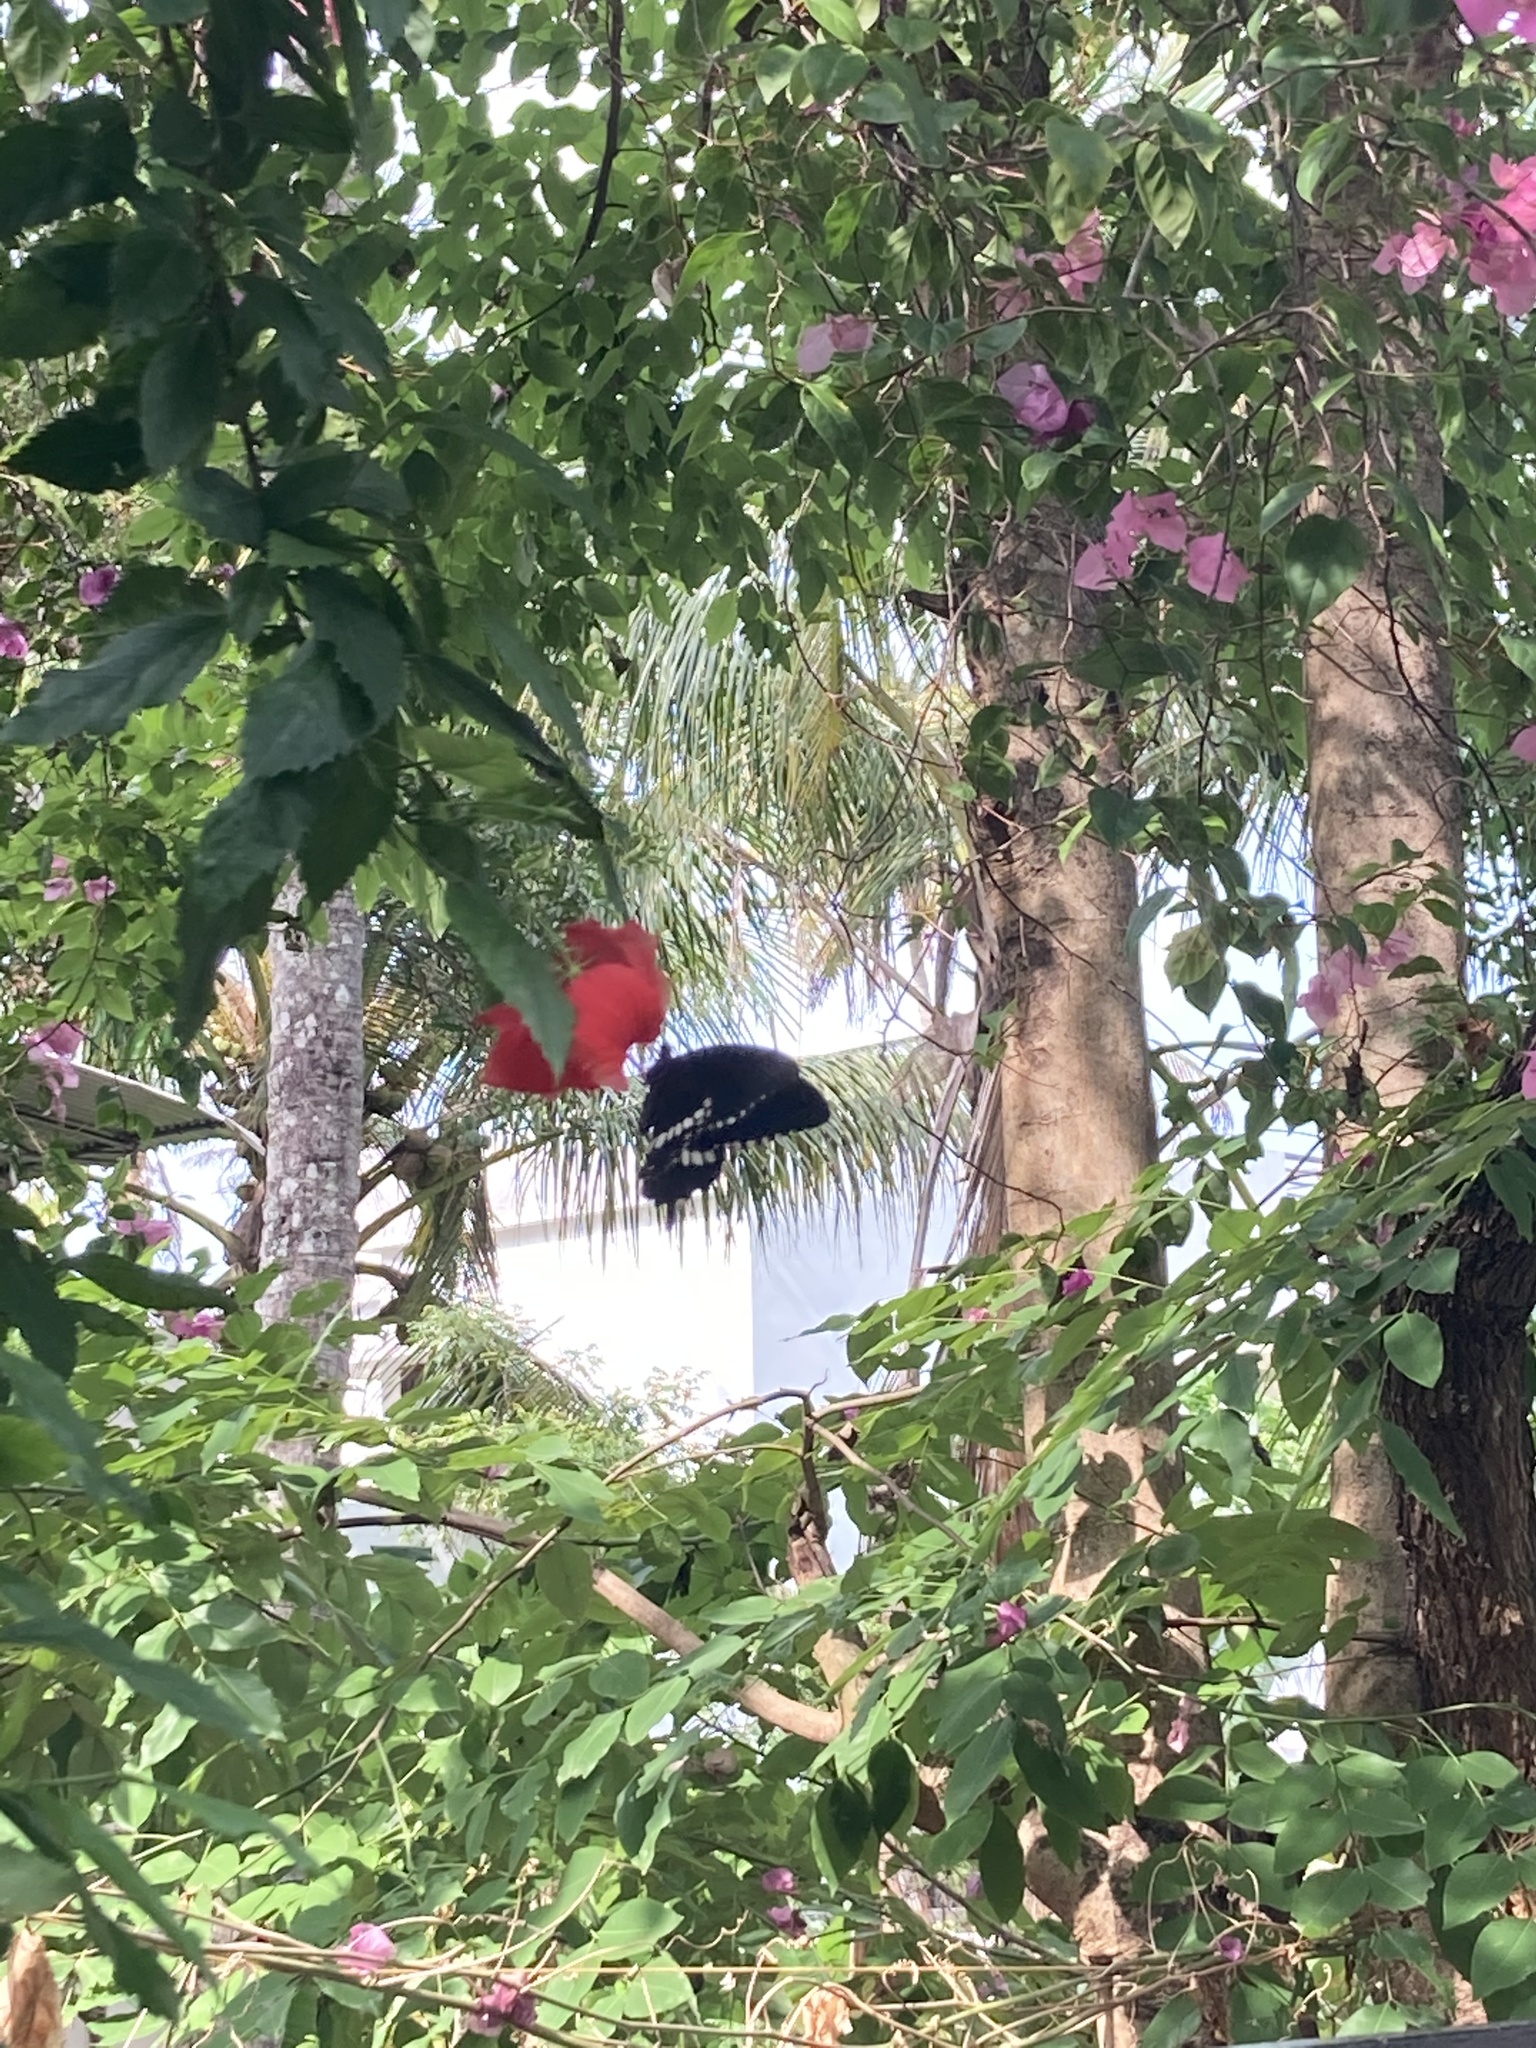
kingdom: Animalia
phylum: Arthropoda
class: Insecta
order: Lepidoptera
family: Papilionidae
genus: Papilio
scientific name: Papilio polytes
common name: Common mormon
